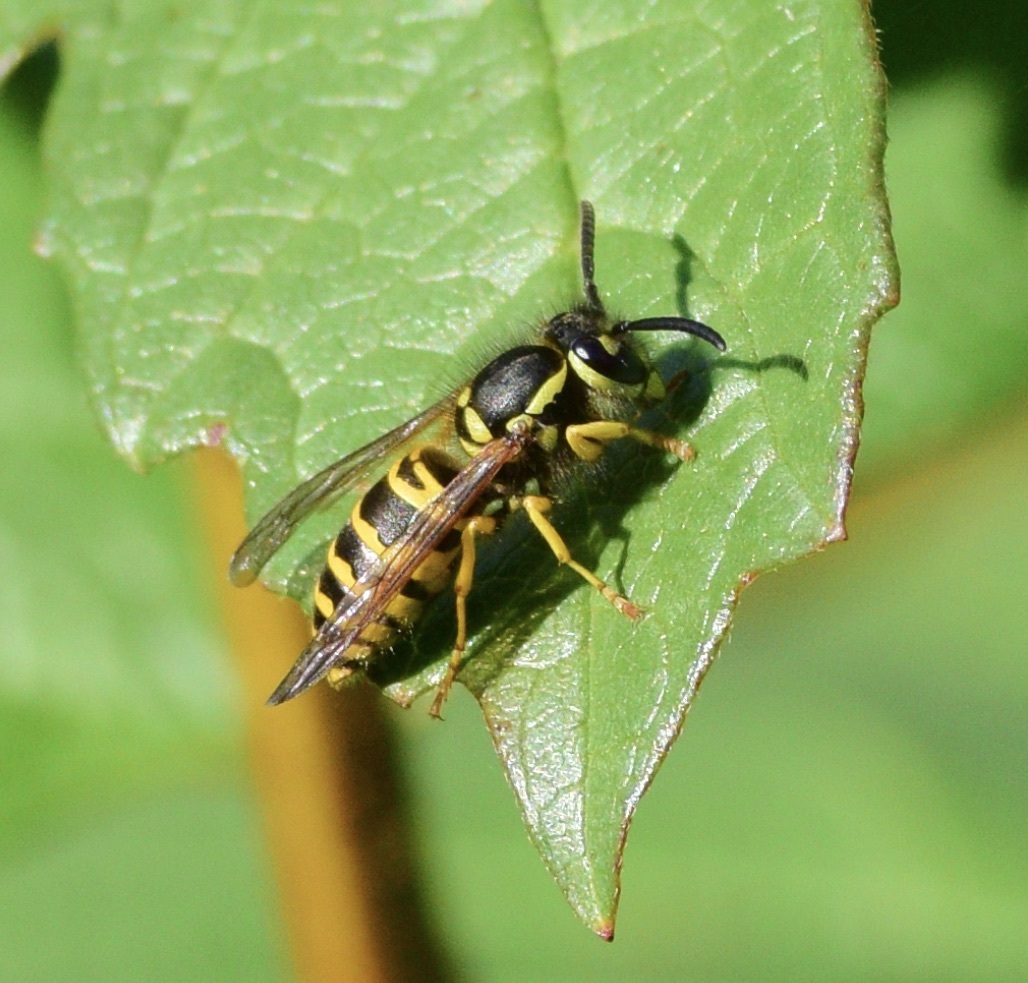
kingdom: Animalia
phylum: Arthropoda
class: Insecta
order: Hymenoptera
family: Vespidae
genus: Vespula
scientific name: Vespula maculifrons
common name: Eastern yellowjacket
